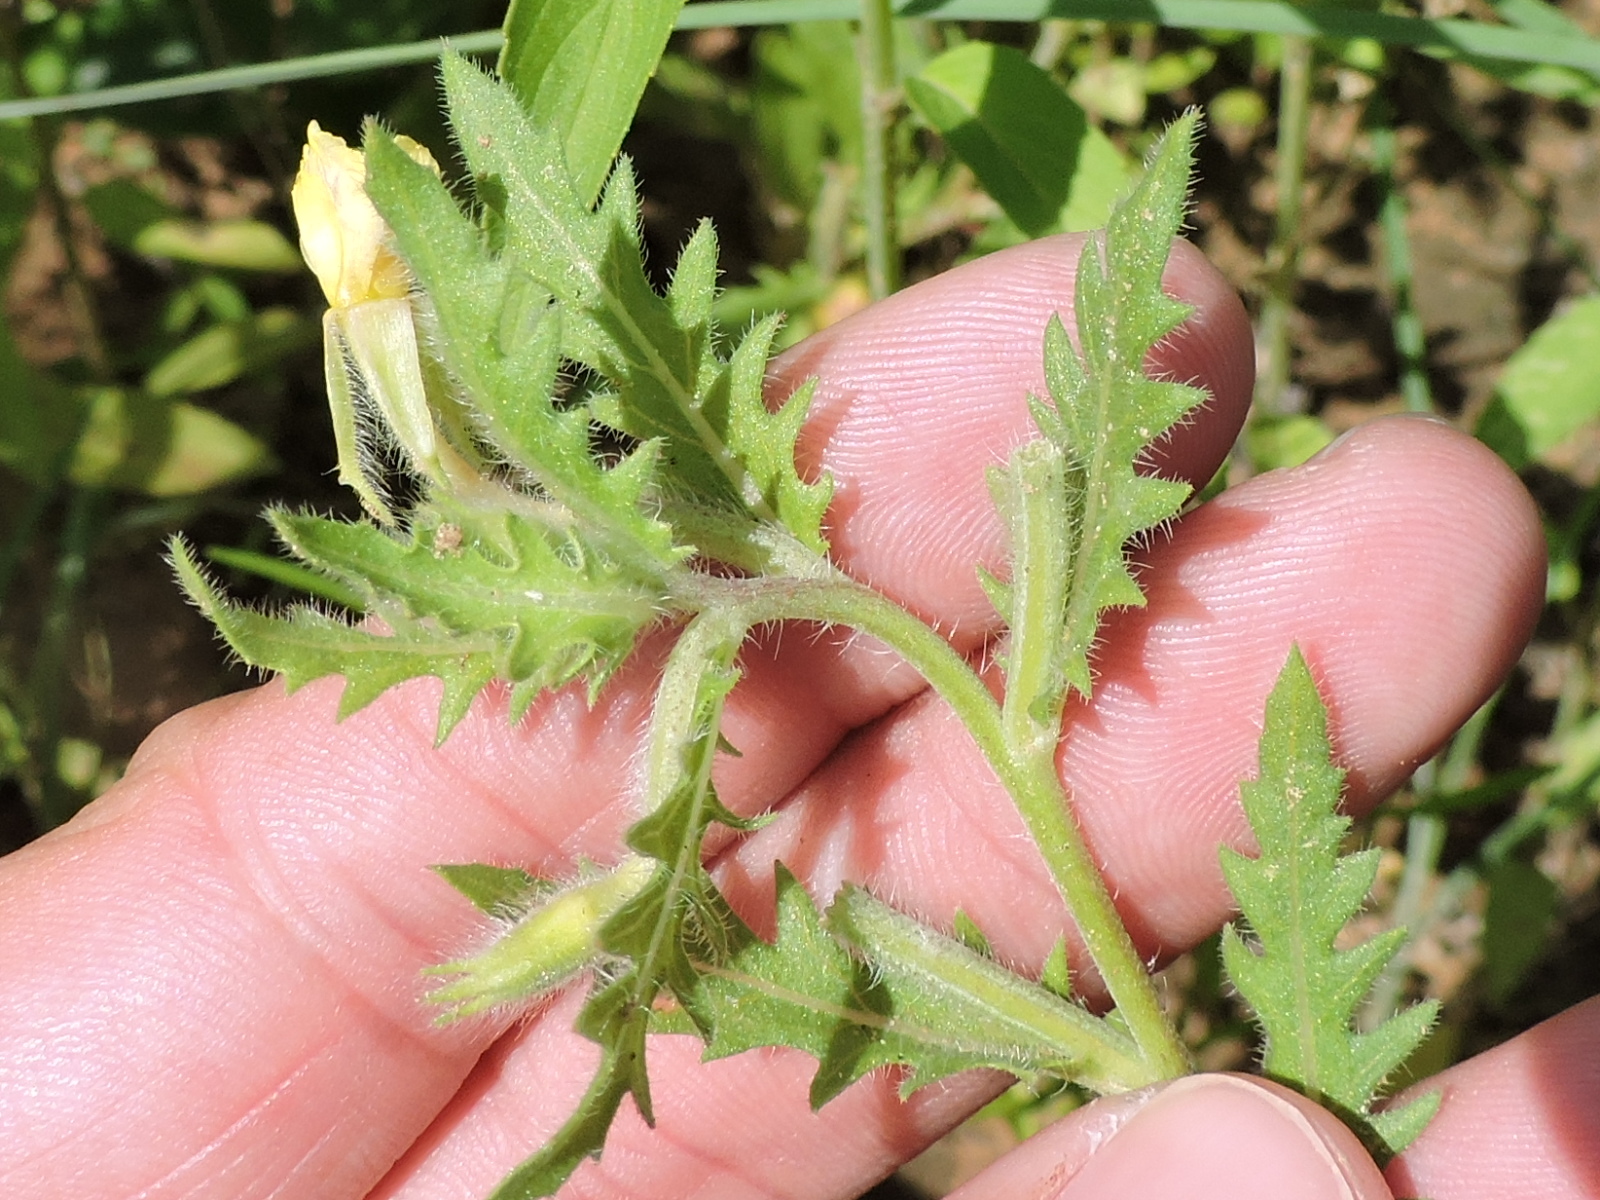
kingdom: Plantae
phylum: Tracheophyta
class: Magnoliopsida
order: Myrtales
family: Onagraceae
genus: Oenothera
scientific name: Oenothera laciniata
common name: Cut-leaved evening-primrose
